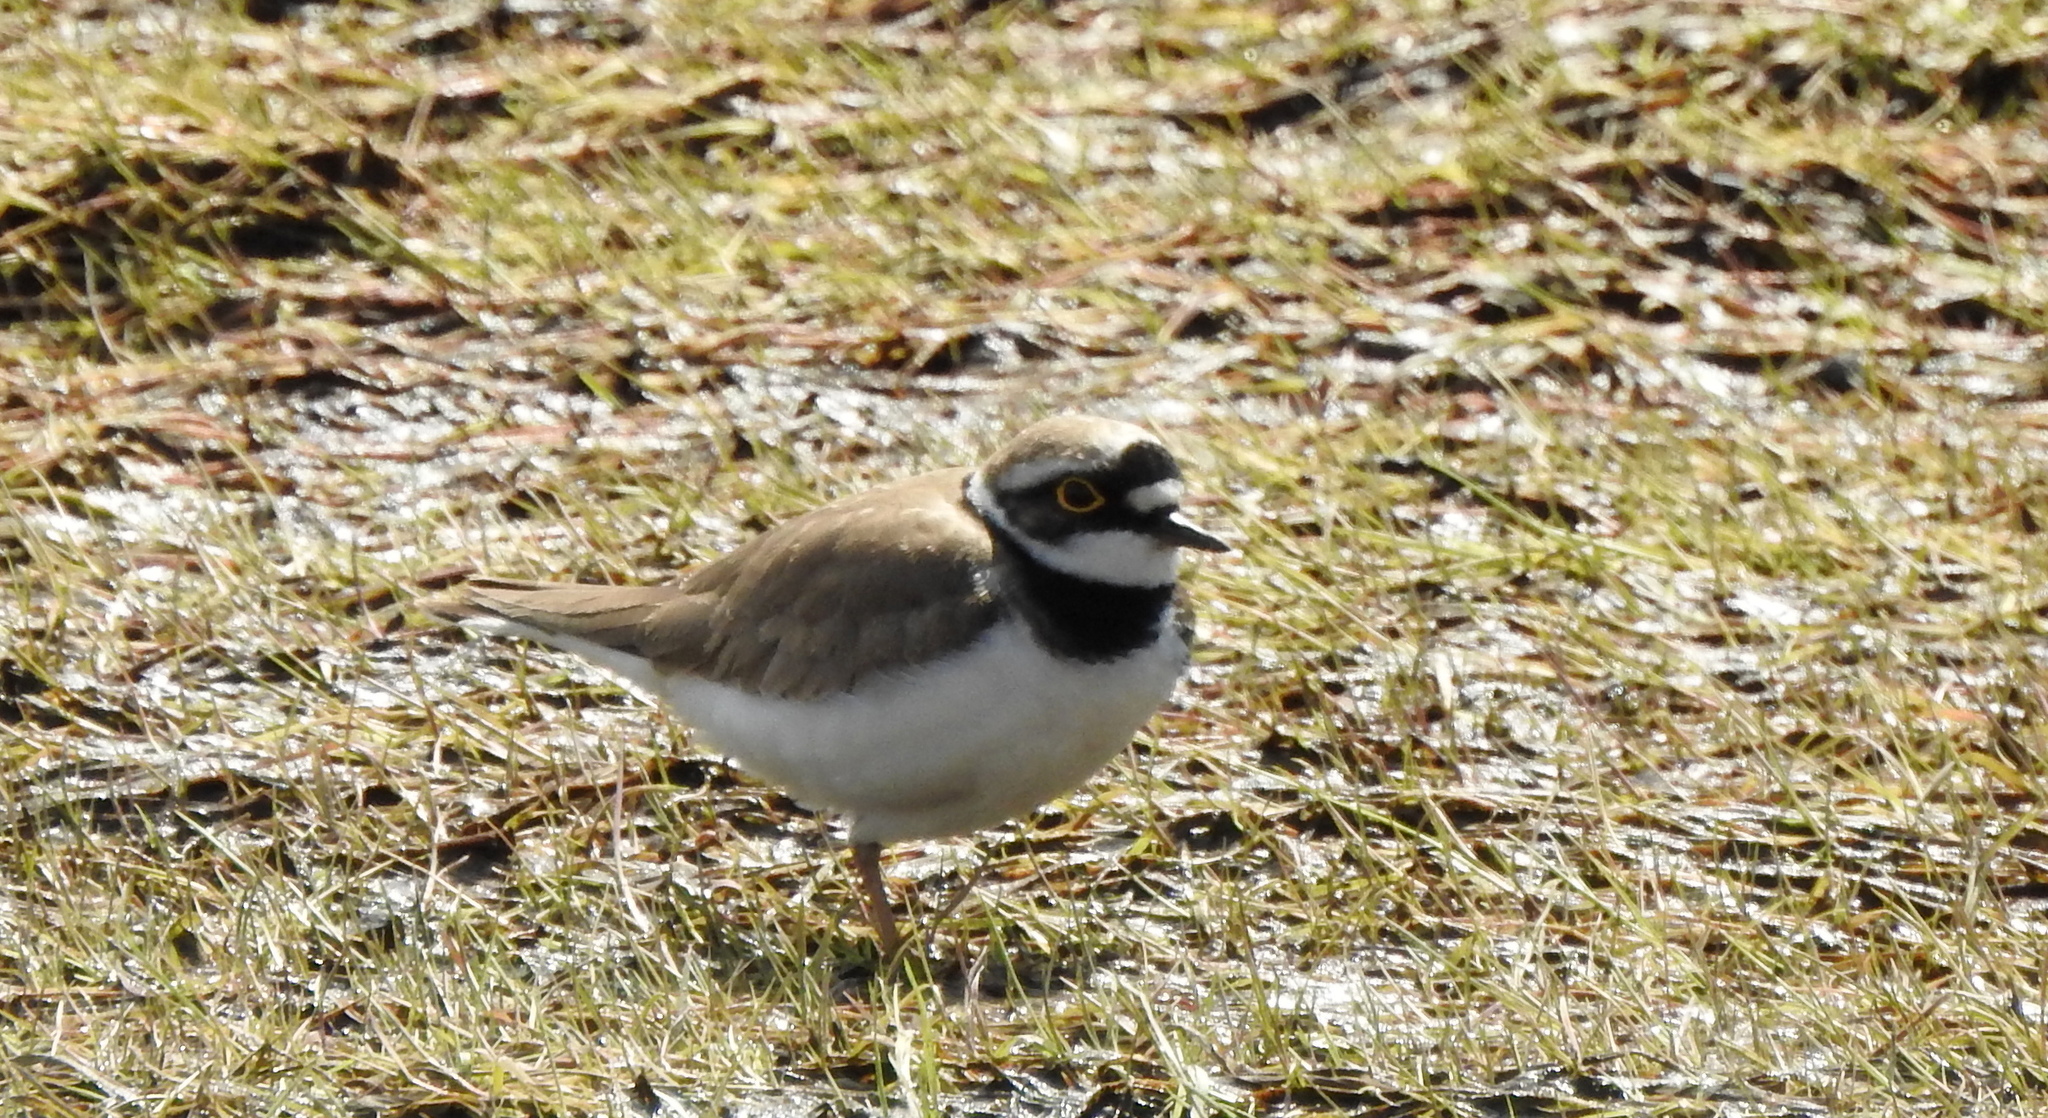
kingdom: Animalia
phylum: Chordata
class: Aves
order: Charadriiformes
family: Charadriidae
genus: Charadrius
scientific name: Charadrius dubius
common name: Little ringed plover
